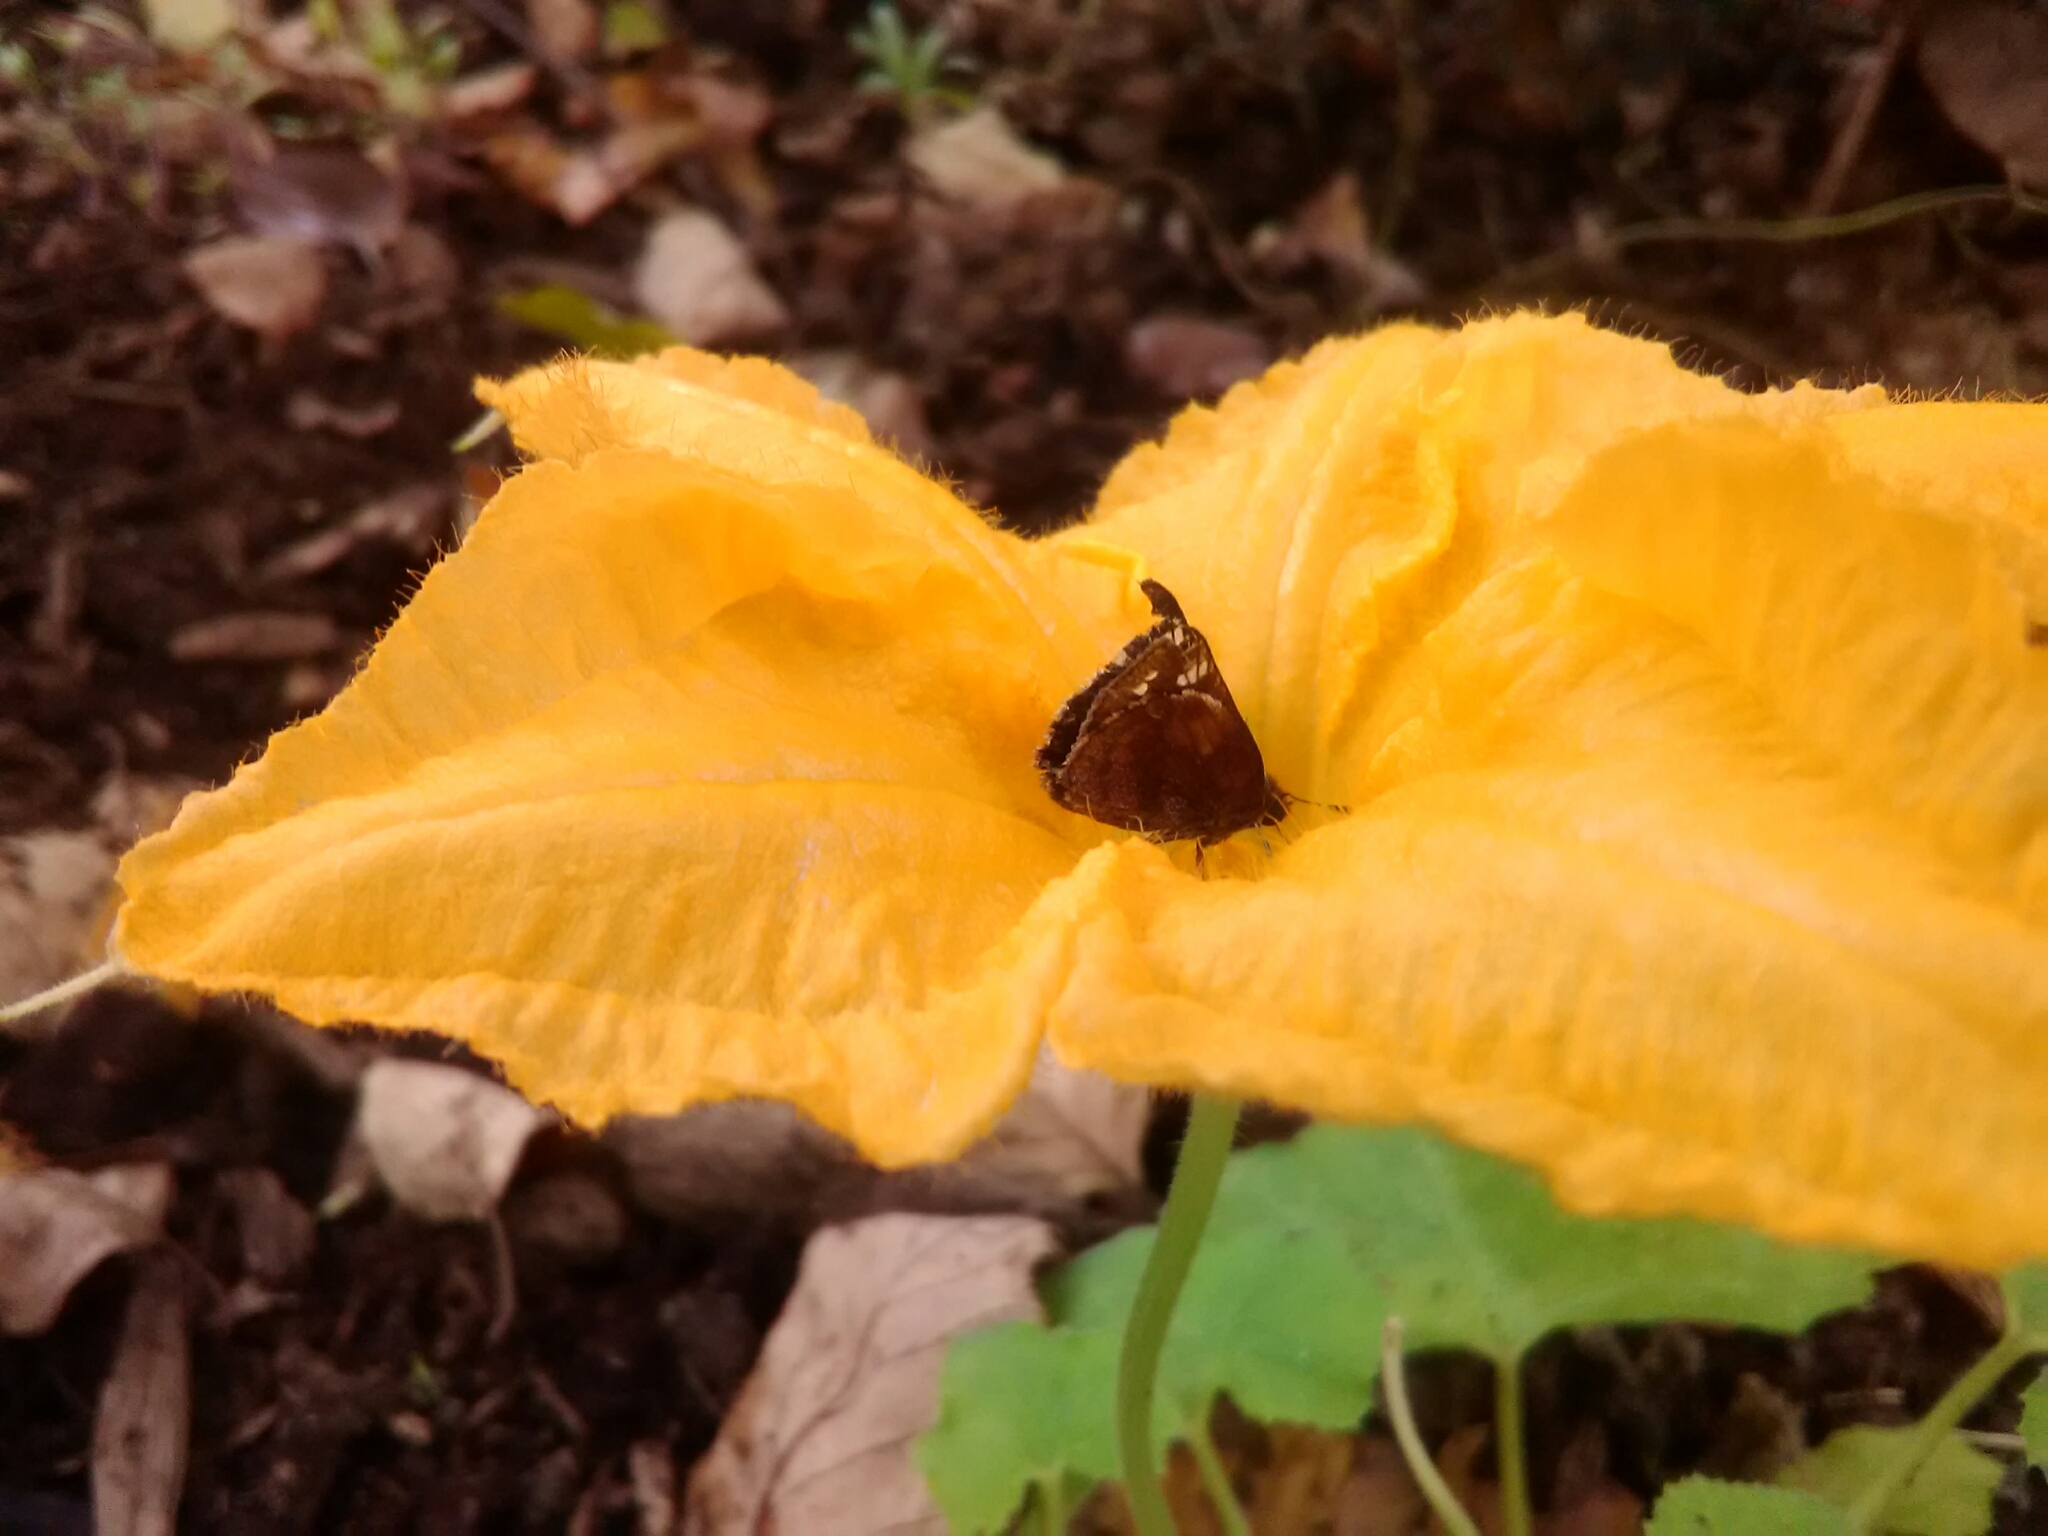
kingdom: Animalia
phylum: Arthropoda
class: Insecta
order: Lepidoptera
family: Hesperiidae
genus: Lon
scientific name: Lon zabulon
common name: Zabulon skipper
